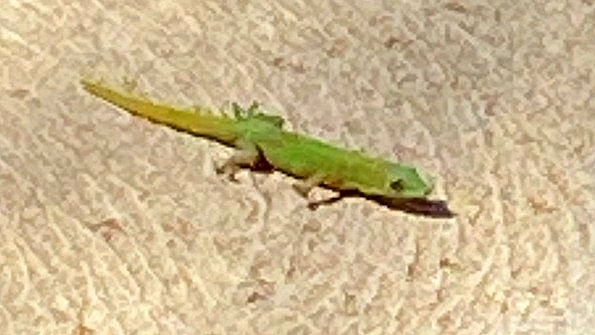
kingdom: Animalia
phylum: Chordata
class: Squamata
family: Gekkonidae
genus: Phelsuma
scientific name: Phelsuma laticauda
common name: Gold dust day gecko
